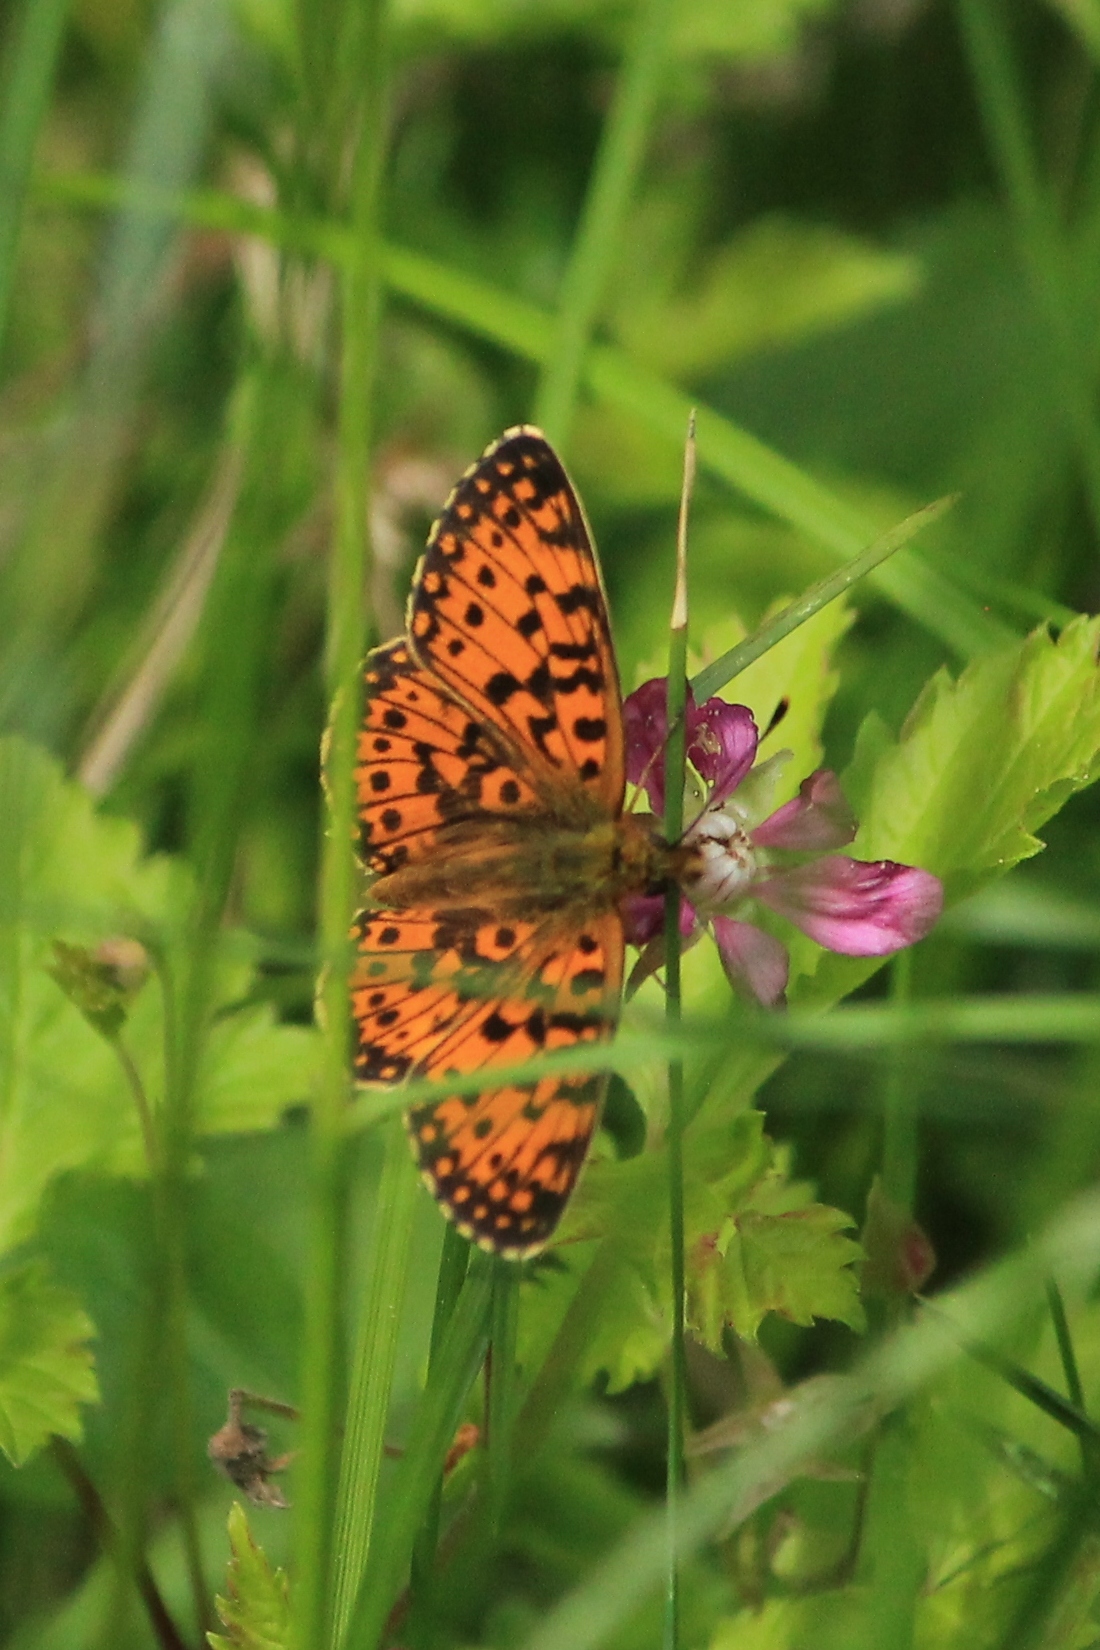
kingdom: Animalia
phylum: Arthropoda
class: Insecta
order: Lepidoptera
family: Nymphalidae
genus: Boloria
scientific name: Boloria selene
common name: Small pearl-bordered fritillary
